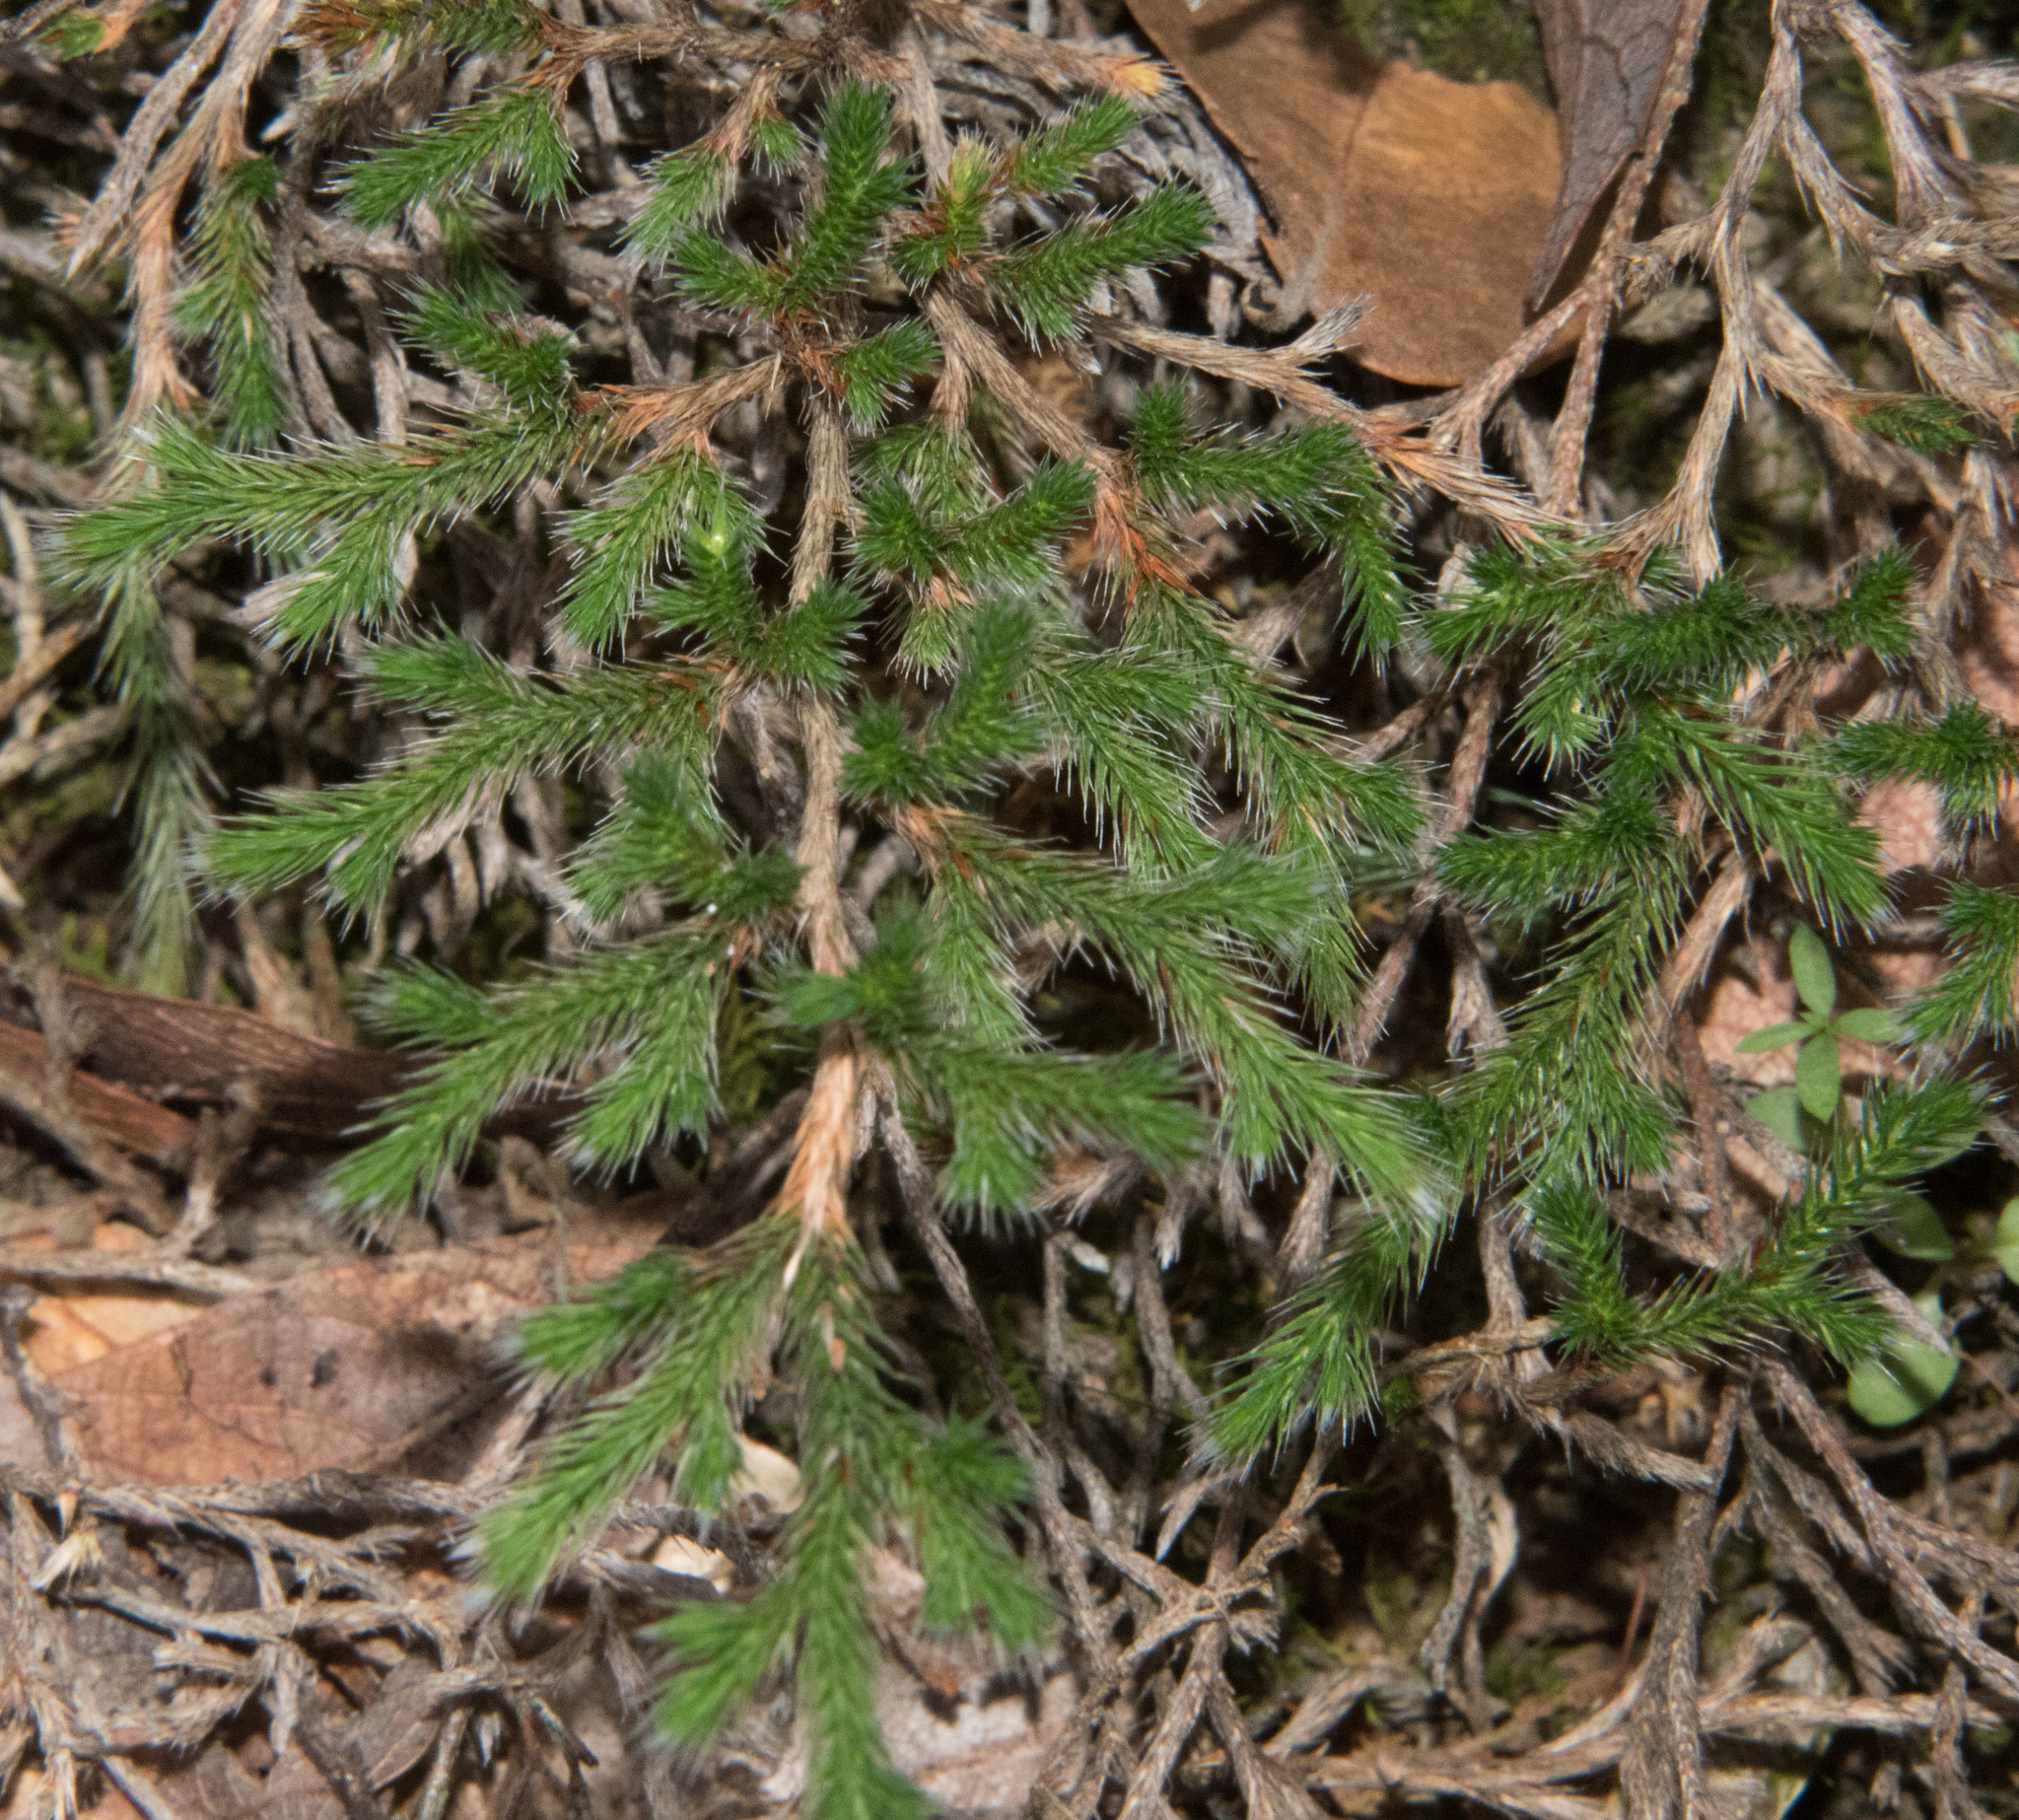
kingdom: Plantae
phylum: Tracheophyta
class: Lycopodiopsida
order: Selaginellales
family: Selaginellaceae
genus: Selaginella
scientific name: Selaginella rupincola
